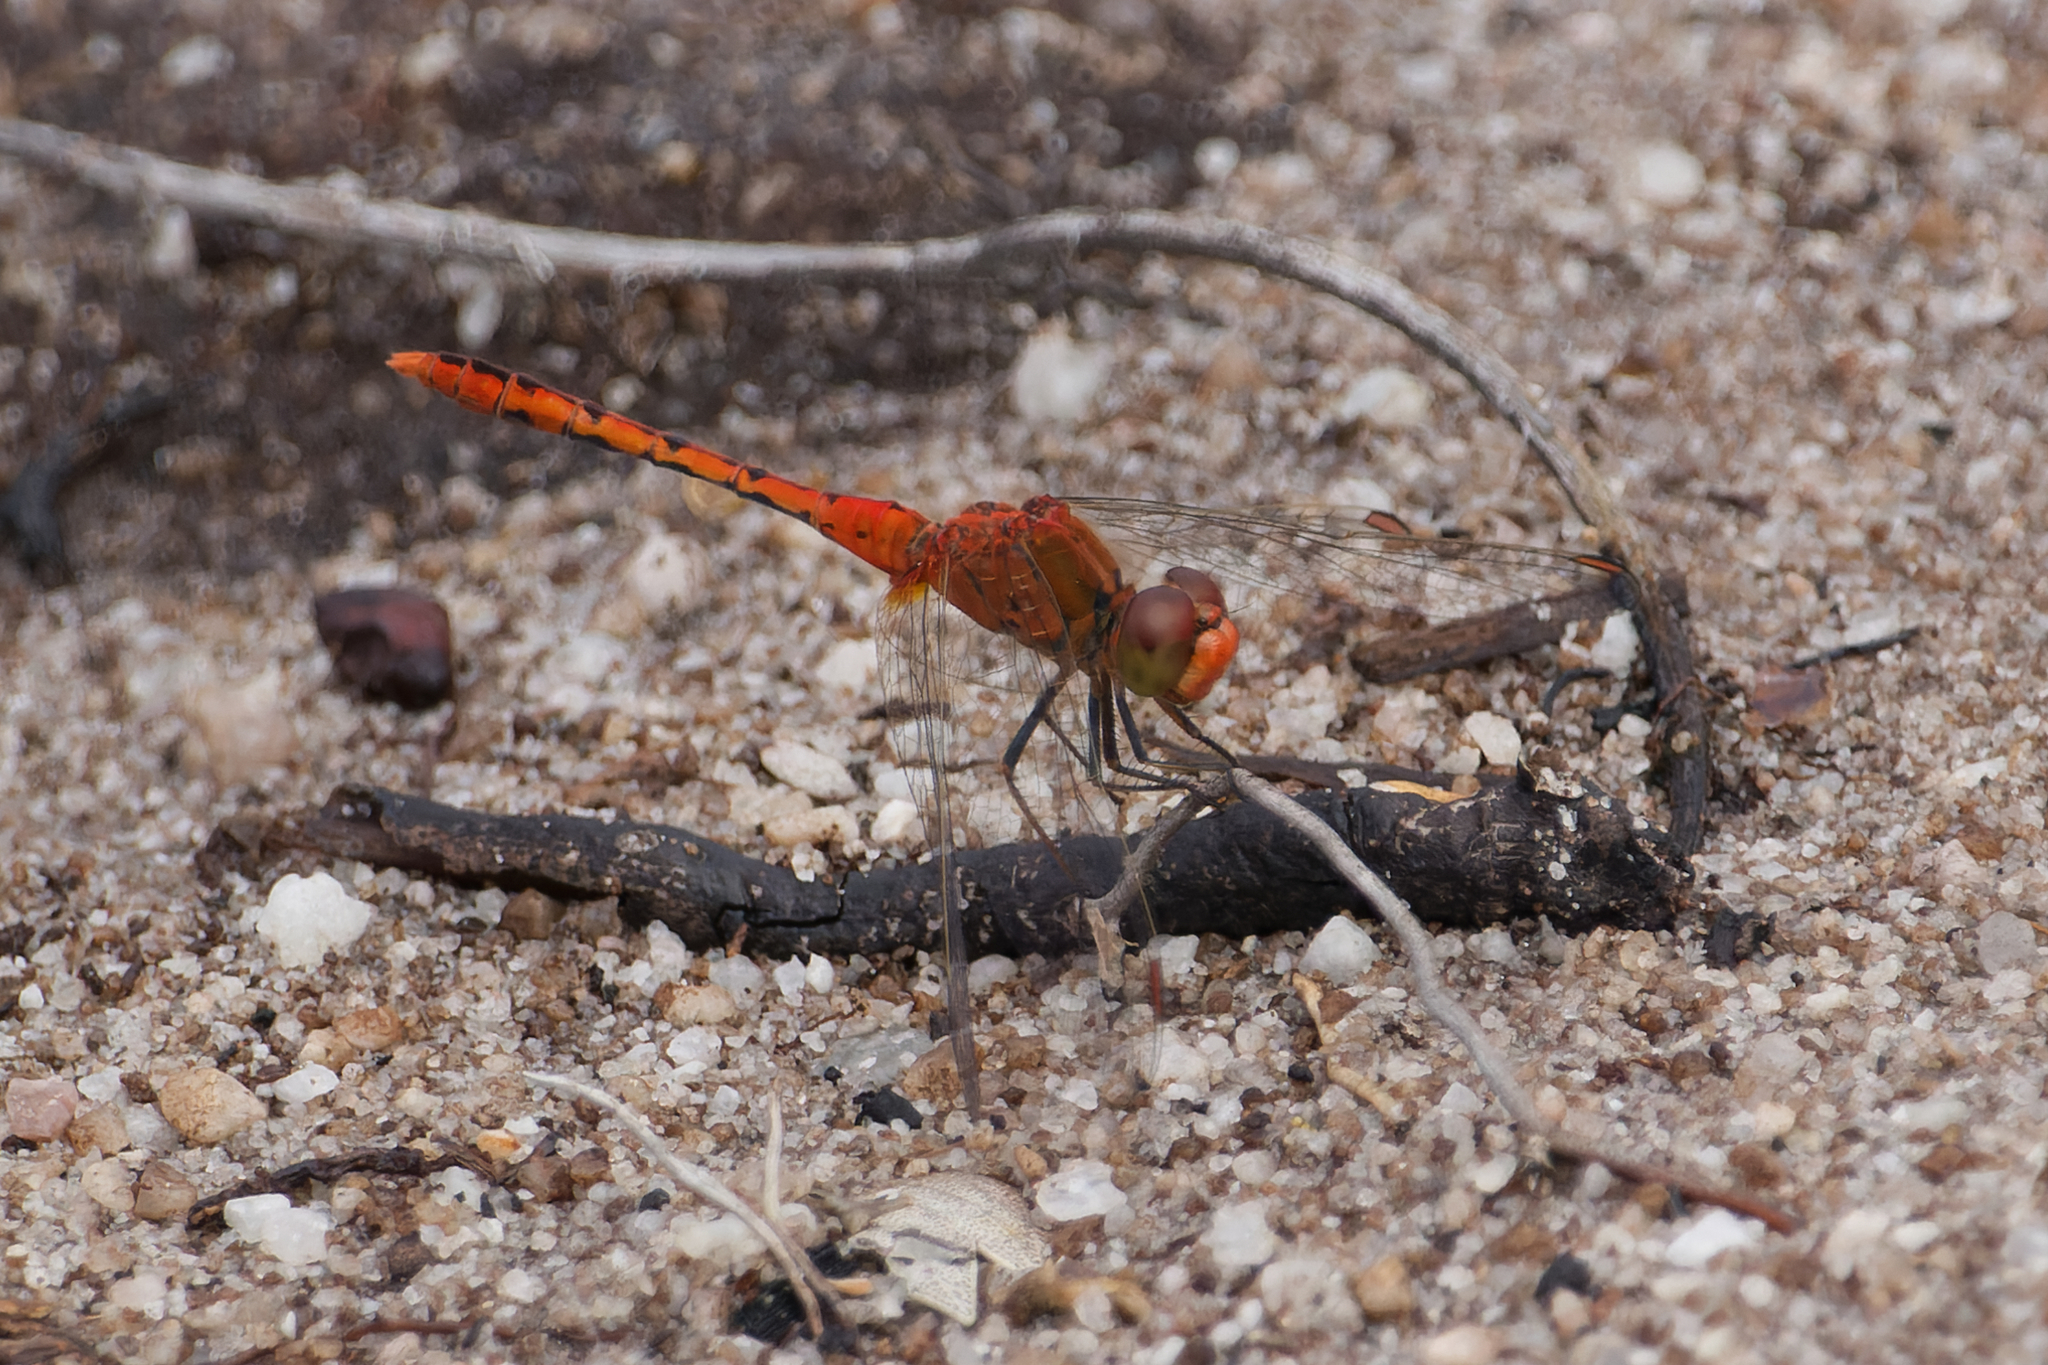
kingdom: Animalia
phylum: Arthropoda
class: Insecta
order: Odonata
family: Libellulidae
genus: Diplacodes
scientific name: Diplacodes bipunctata
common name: Red percher dragonfly
